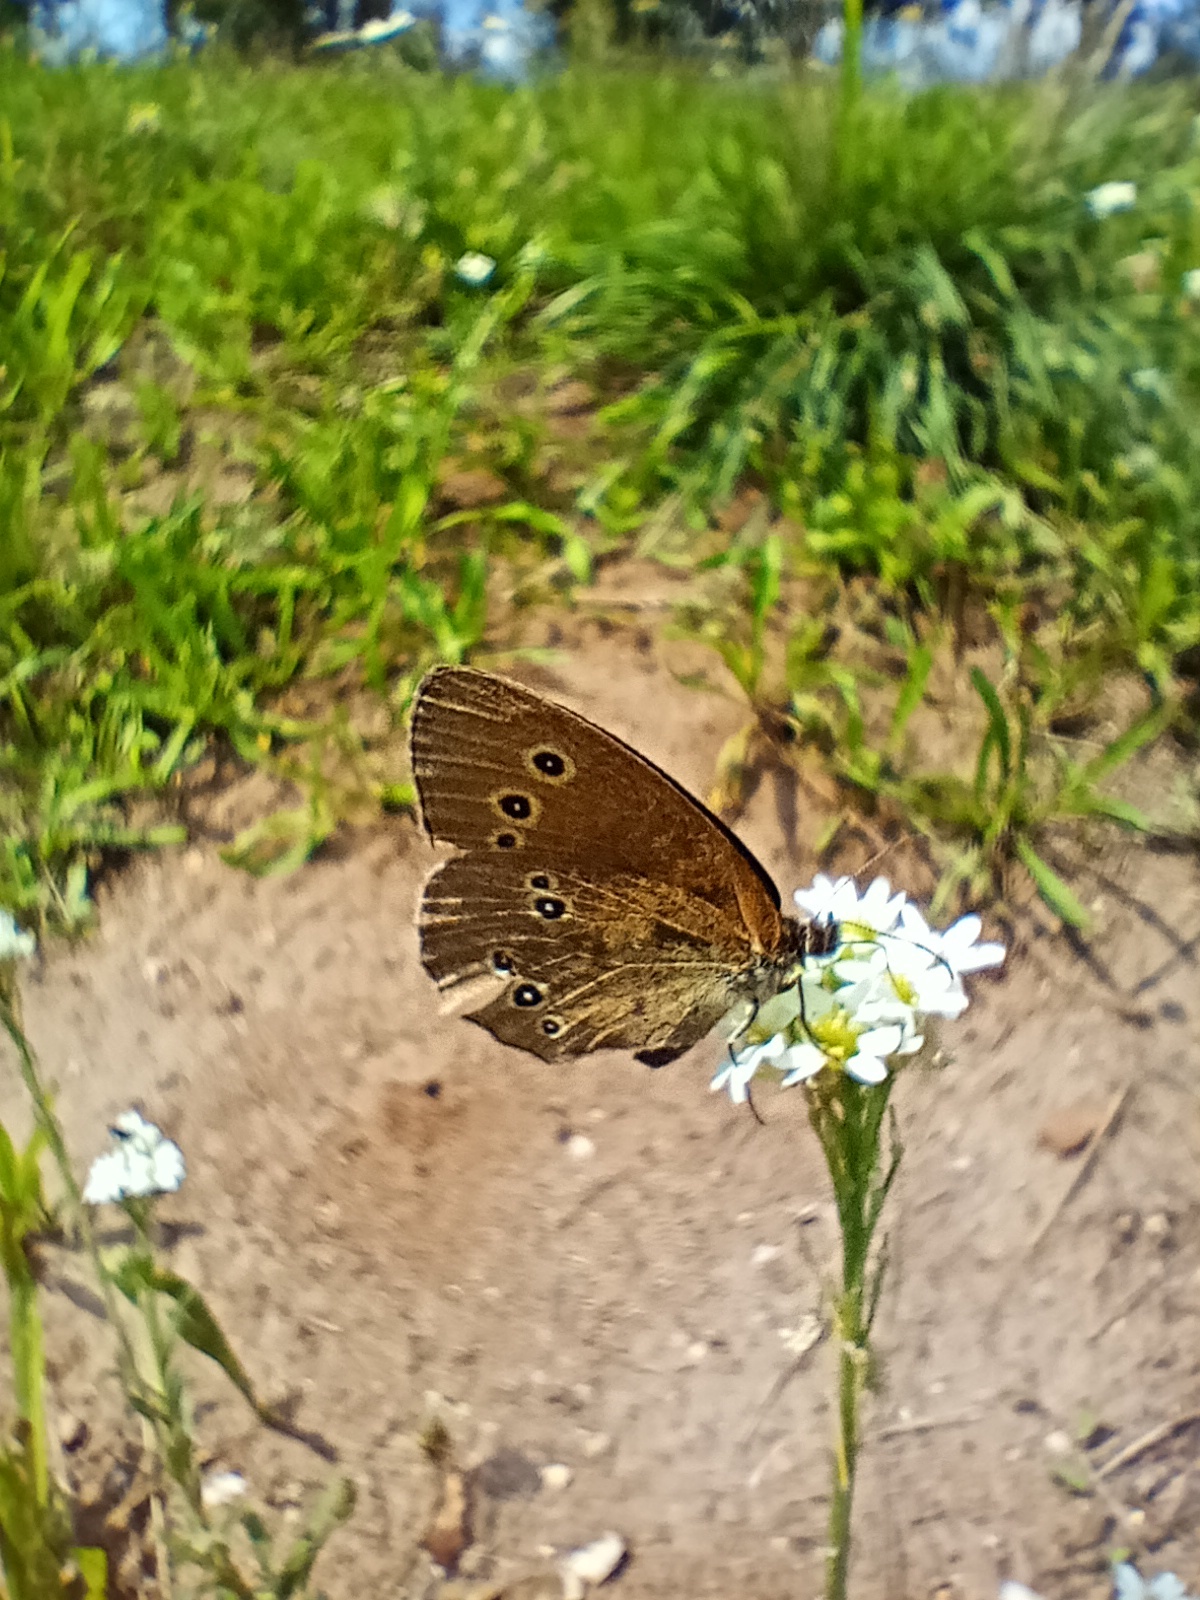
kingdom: Animalia
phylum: Arthropoda
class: Insecta
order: Lepidoptera
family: Nymphalidae
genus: Aphantopus
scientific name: Aphantopus hyperantus
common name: Ringlet
